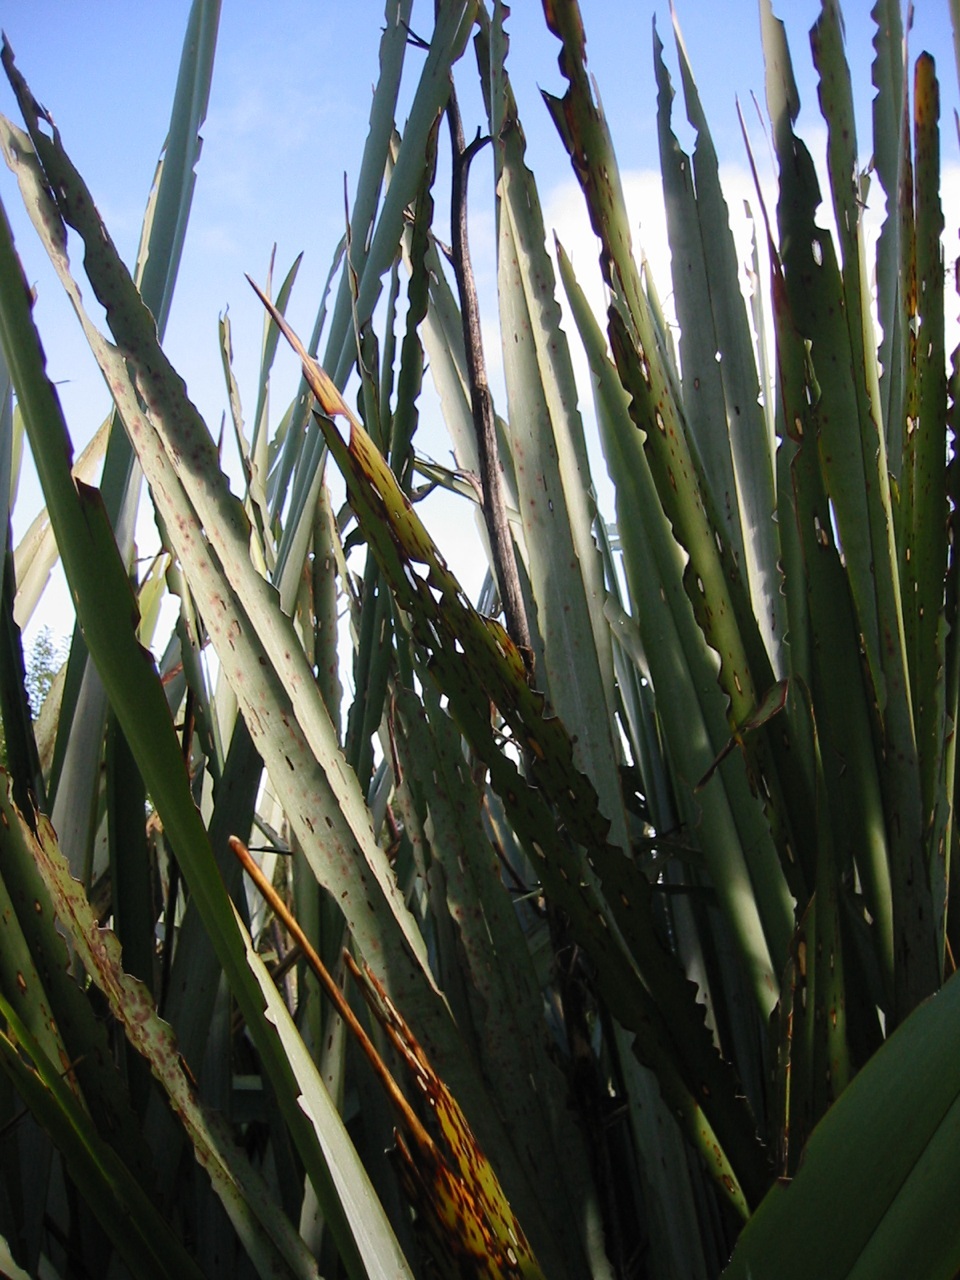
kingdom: Animalia
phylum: Arthropoda
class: Insecta
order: Lepidoptera
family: Noctuidae
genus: Ichneutica
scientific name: Ichneutica
